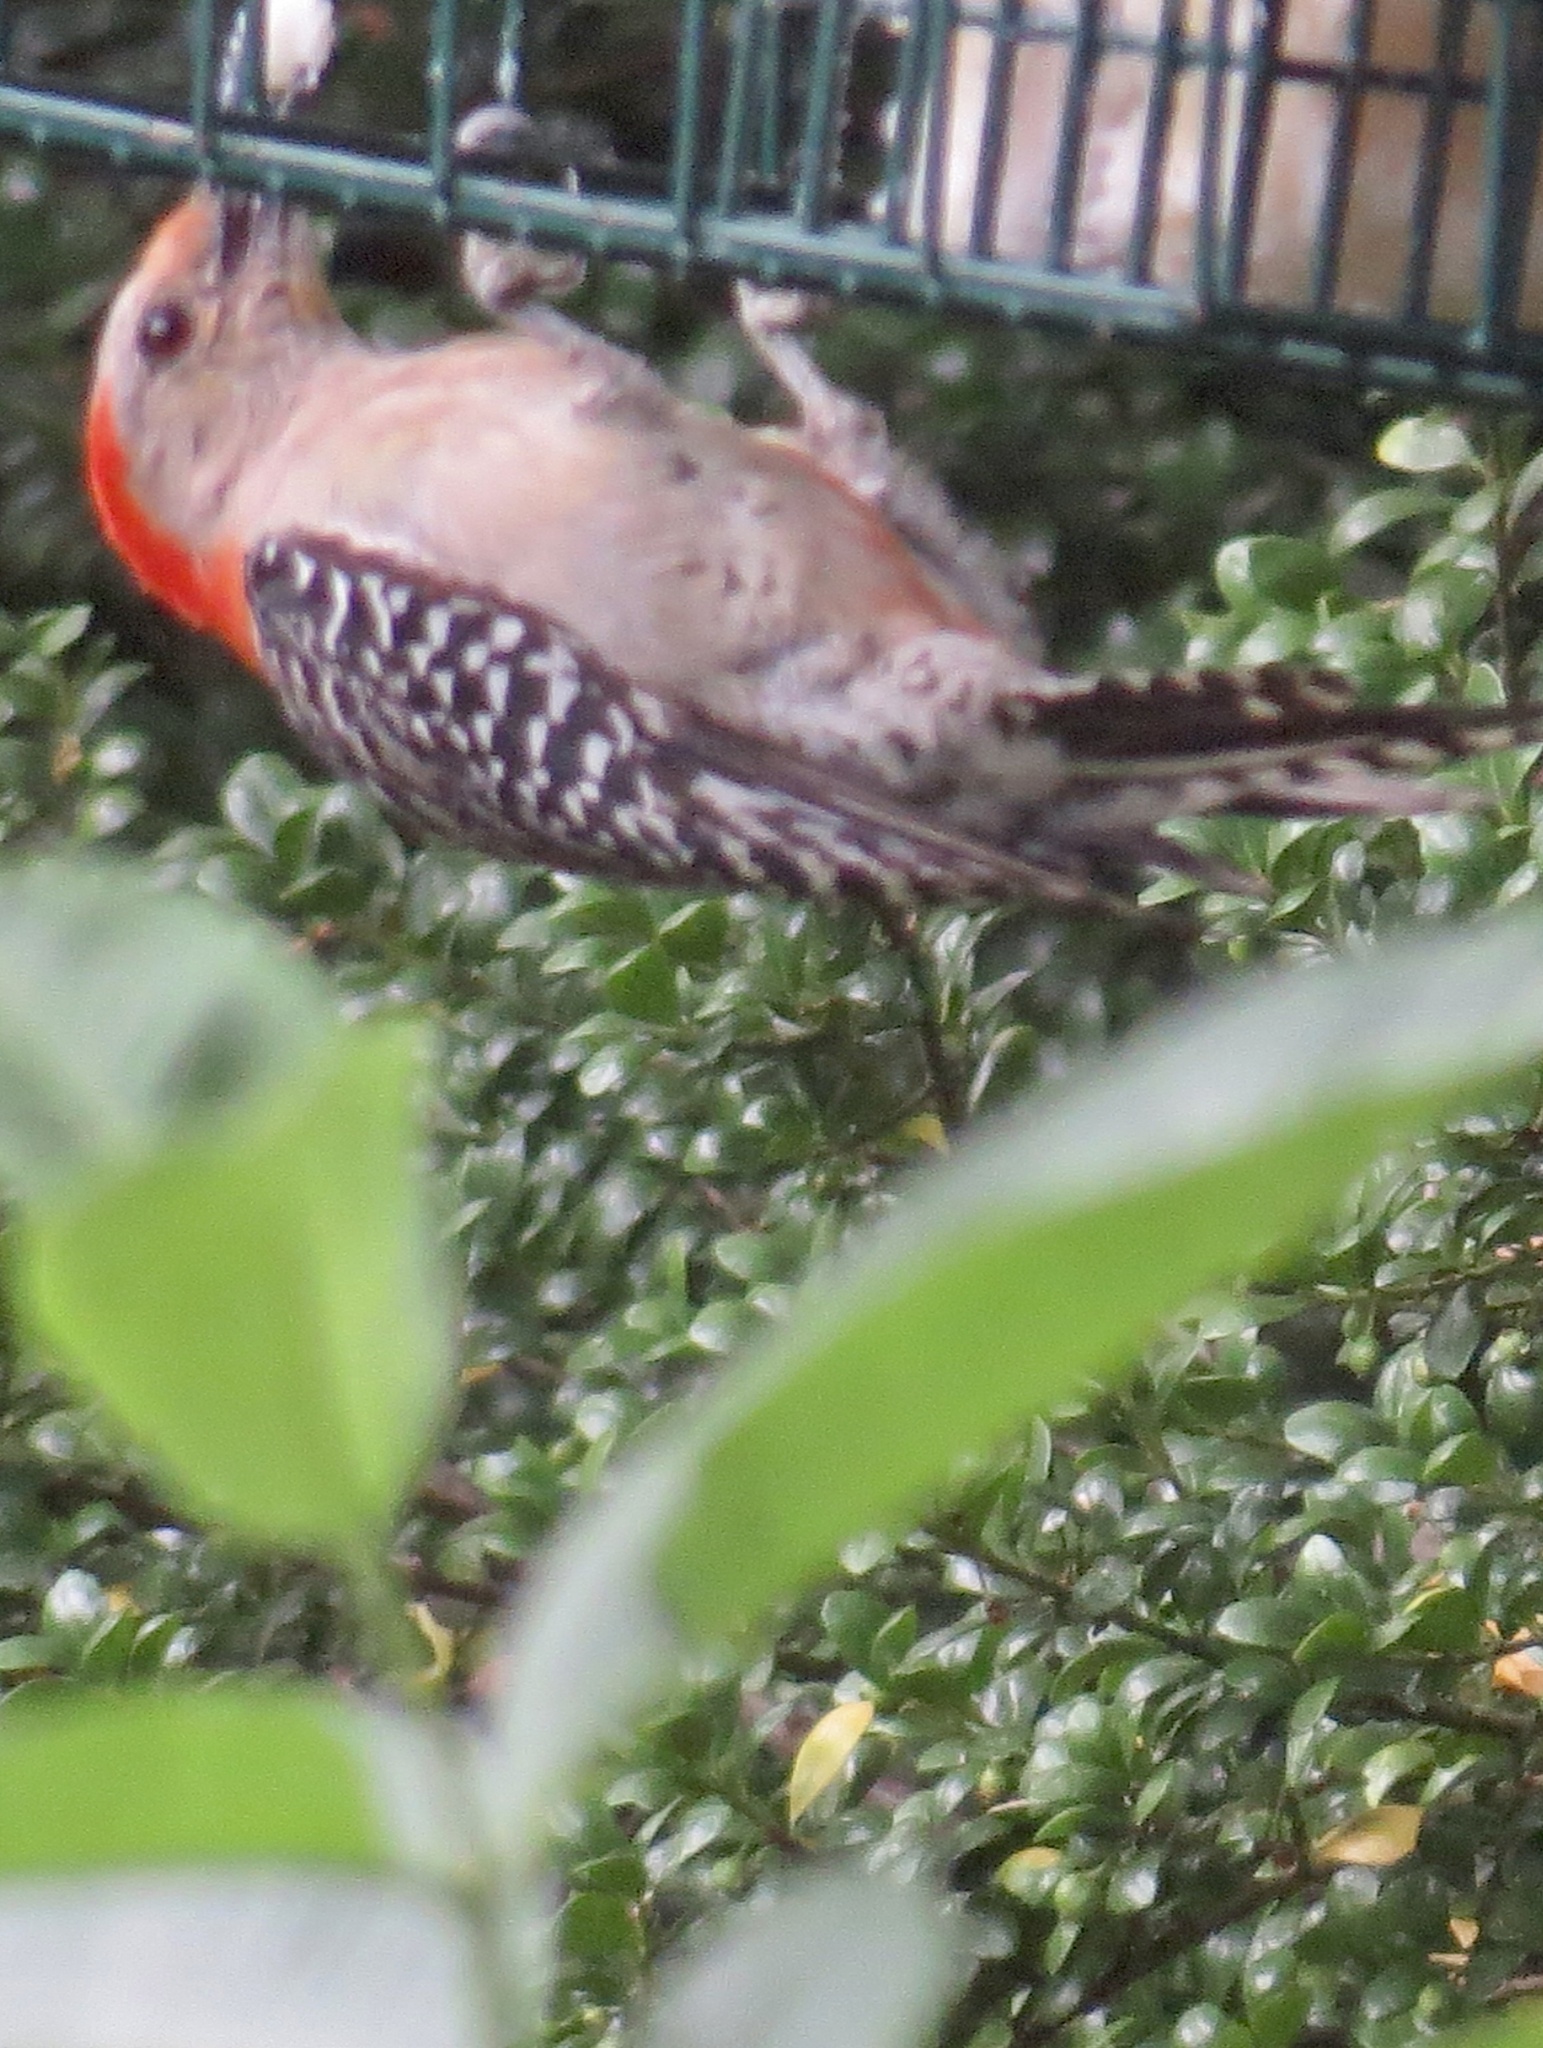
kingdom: Animalia
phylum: Chordata
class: Aves
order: Piciformes
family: Picidae
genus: Melanerpes
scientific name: Melanerpes carolinus
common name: Red-bellied woodpecker
